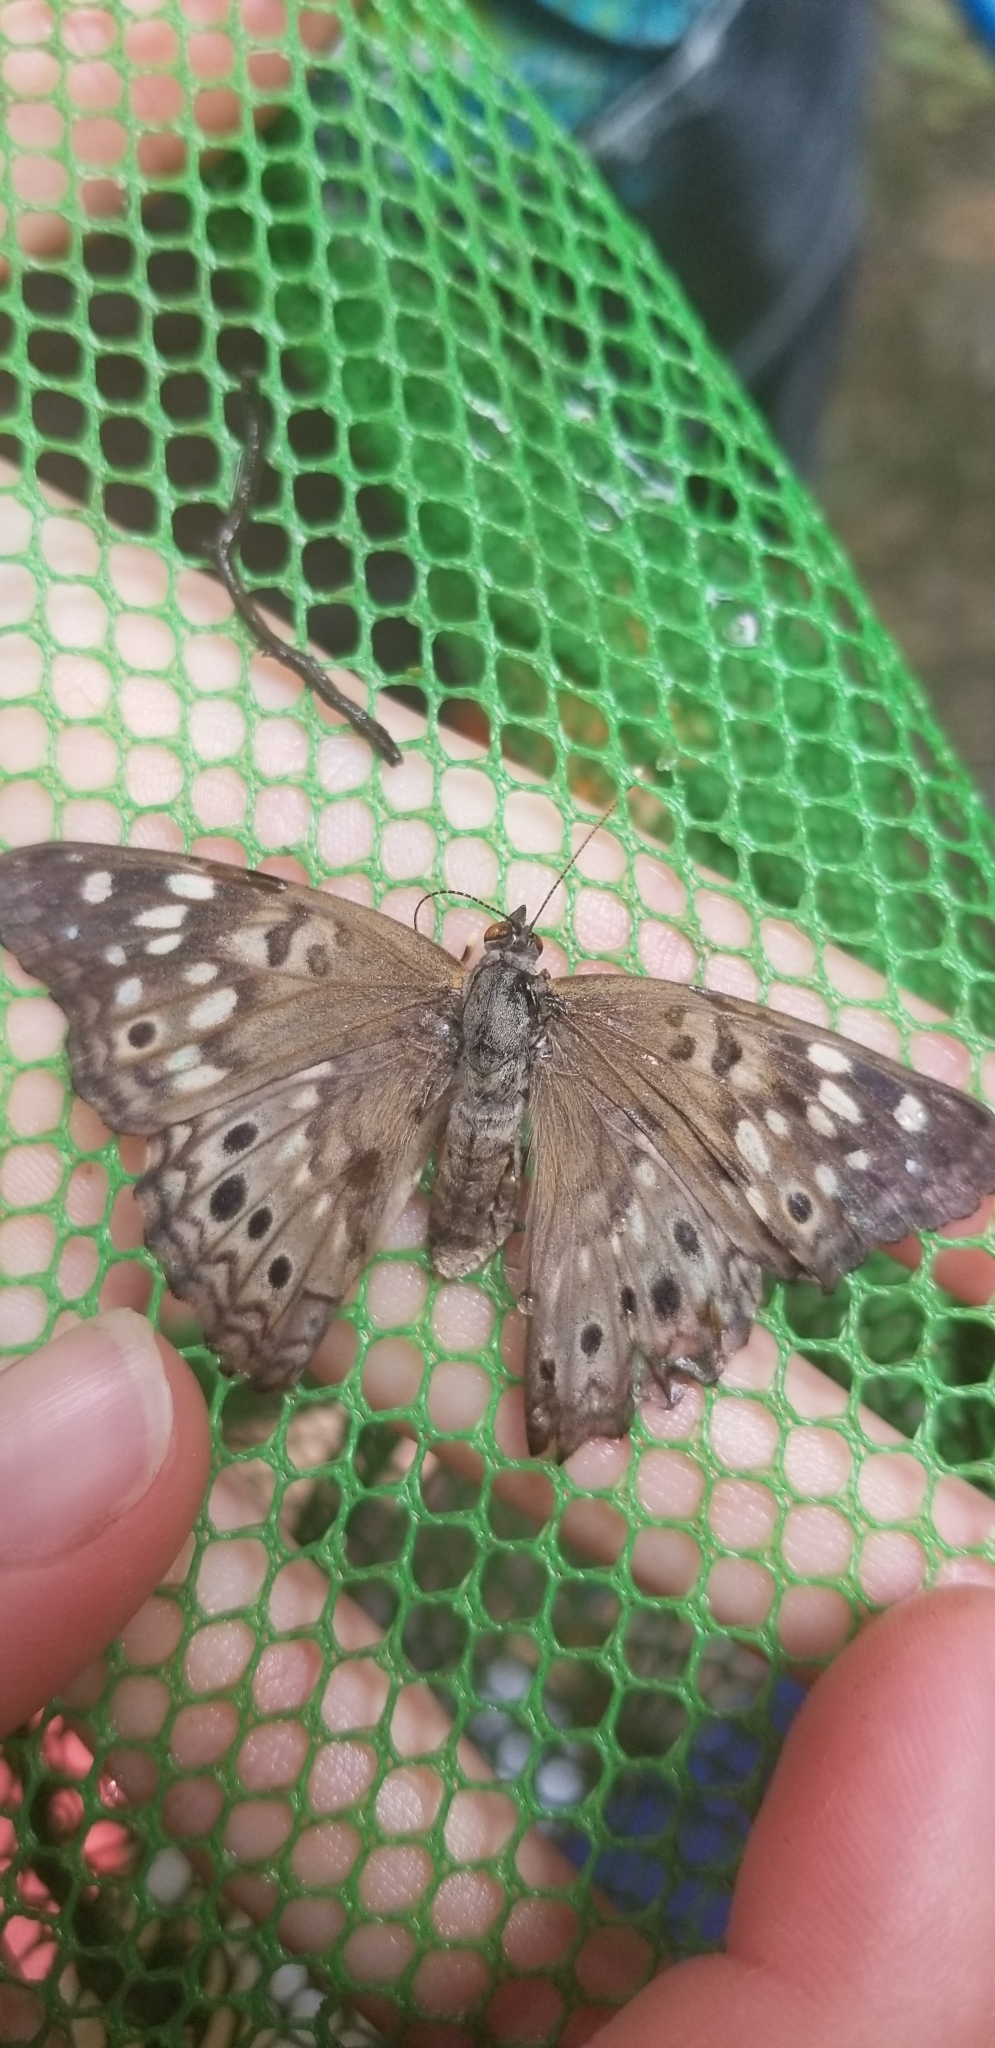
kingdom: Animalia
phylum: Arthropoda
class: Insecta
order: Lepidoptera
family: Nymphalidae
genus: Asterocampa
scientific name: Asterocampa celtis
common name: Hackberry emperor
